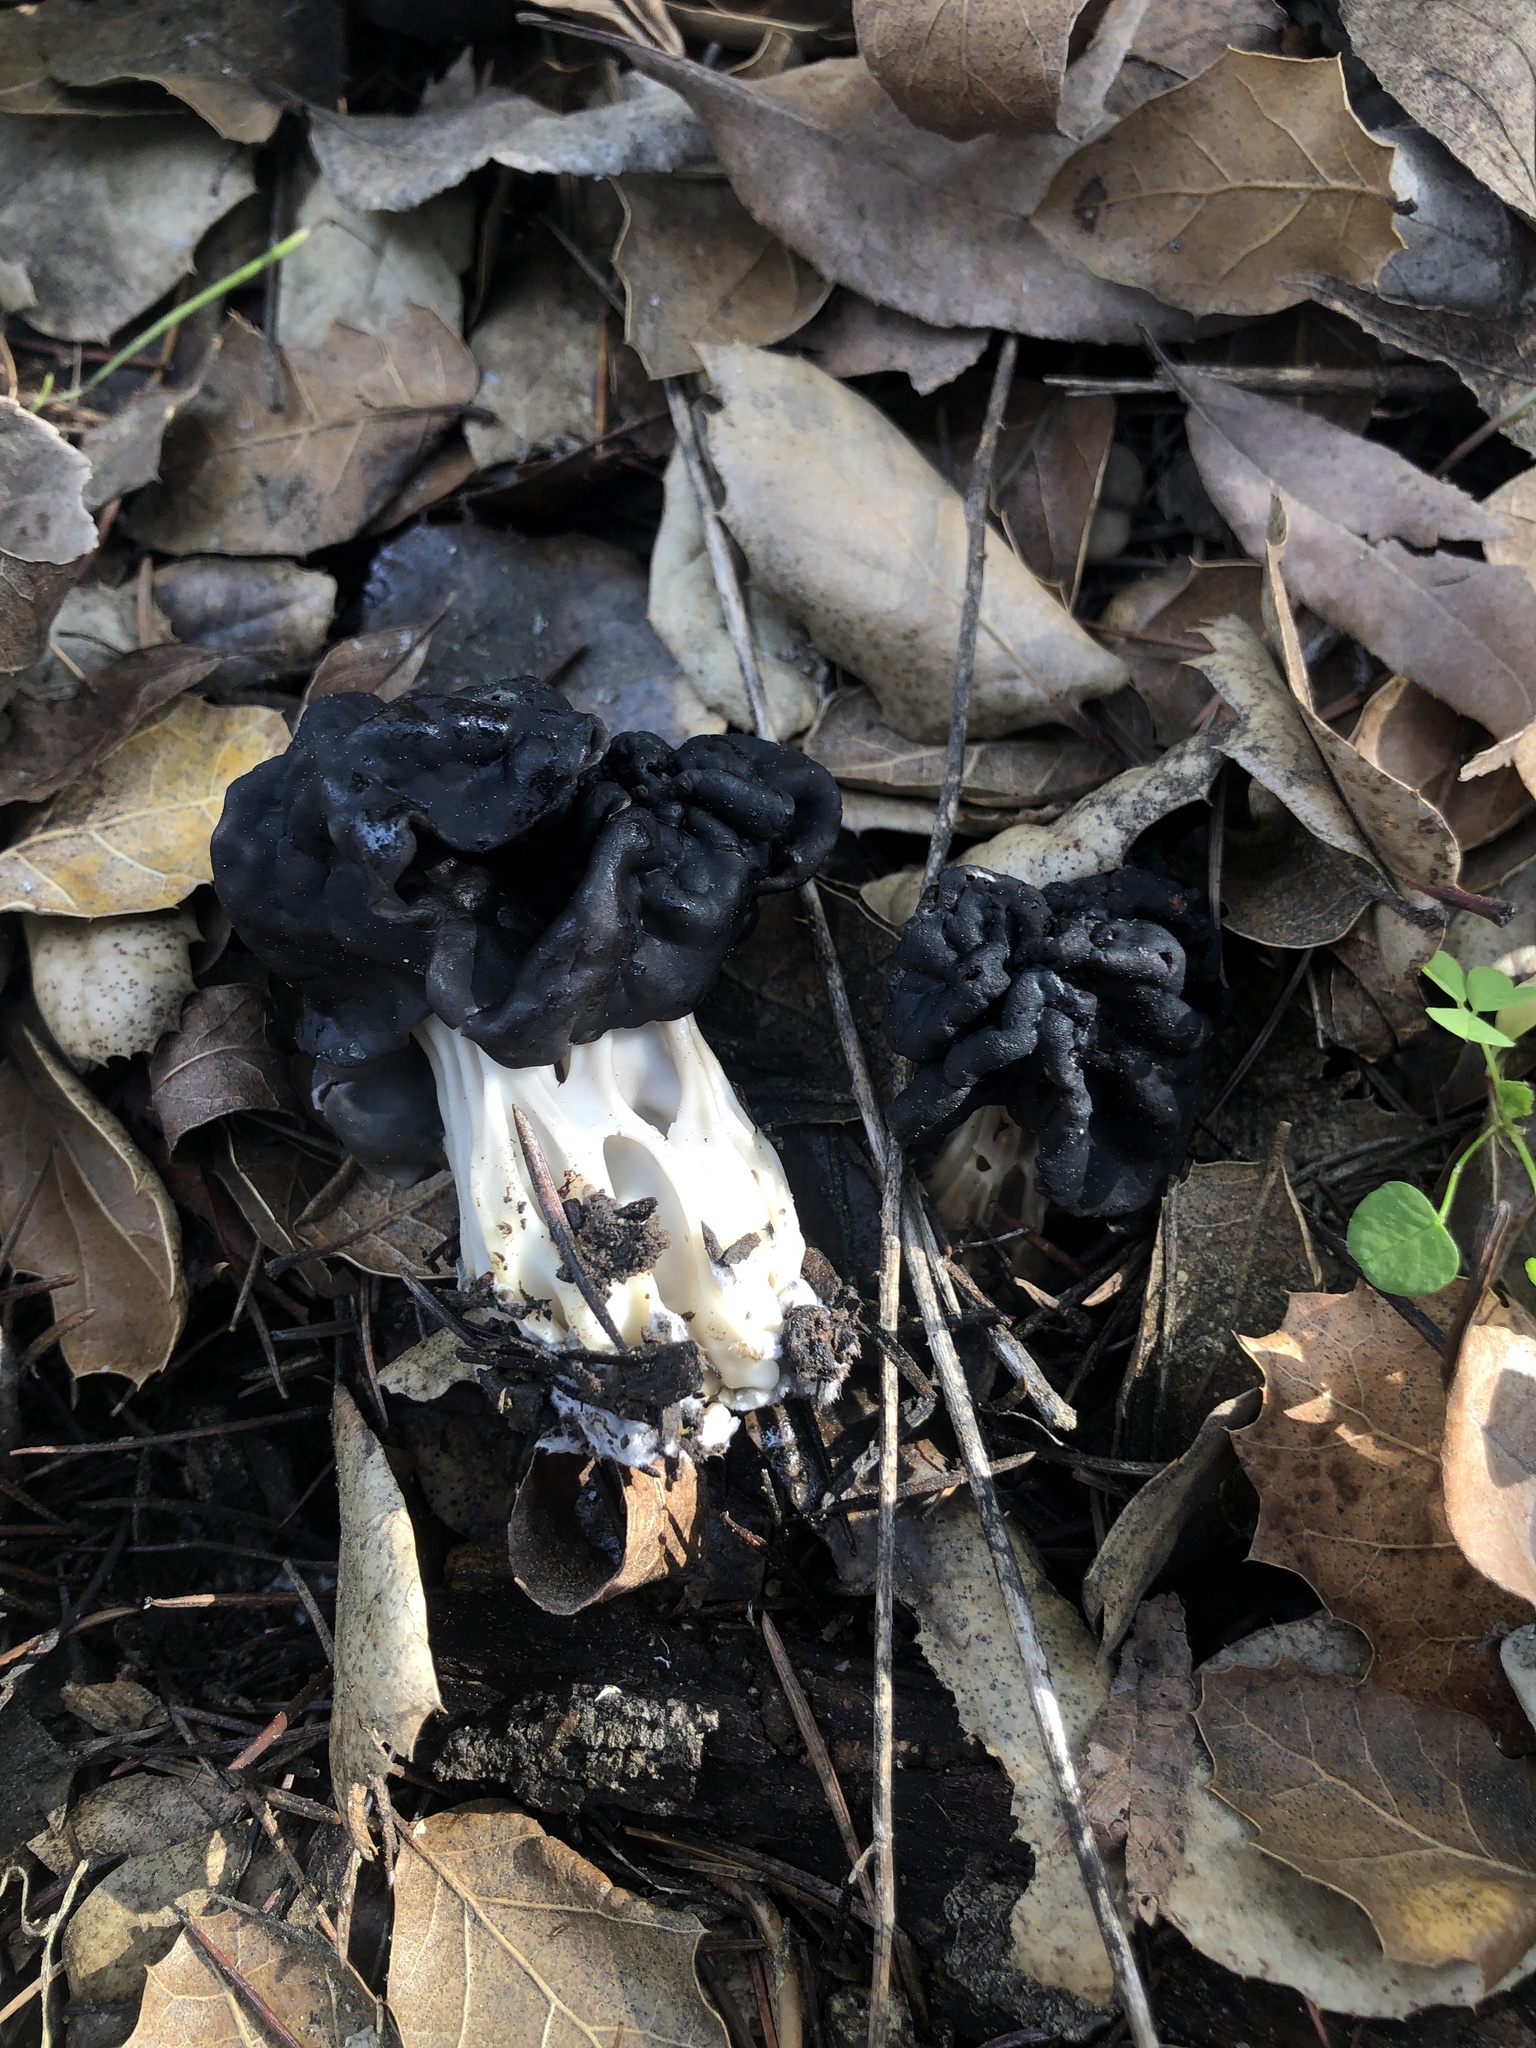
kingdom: Fungi
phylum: Ascomycota
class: Pezizomycetes
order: Pezizales
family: Helvellaceae
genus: Helvella
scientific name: Helvella dryophila
